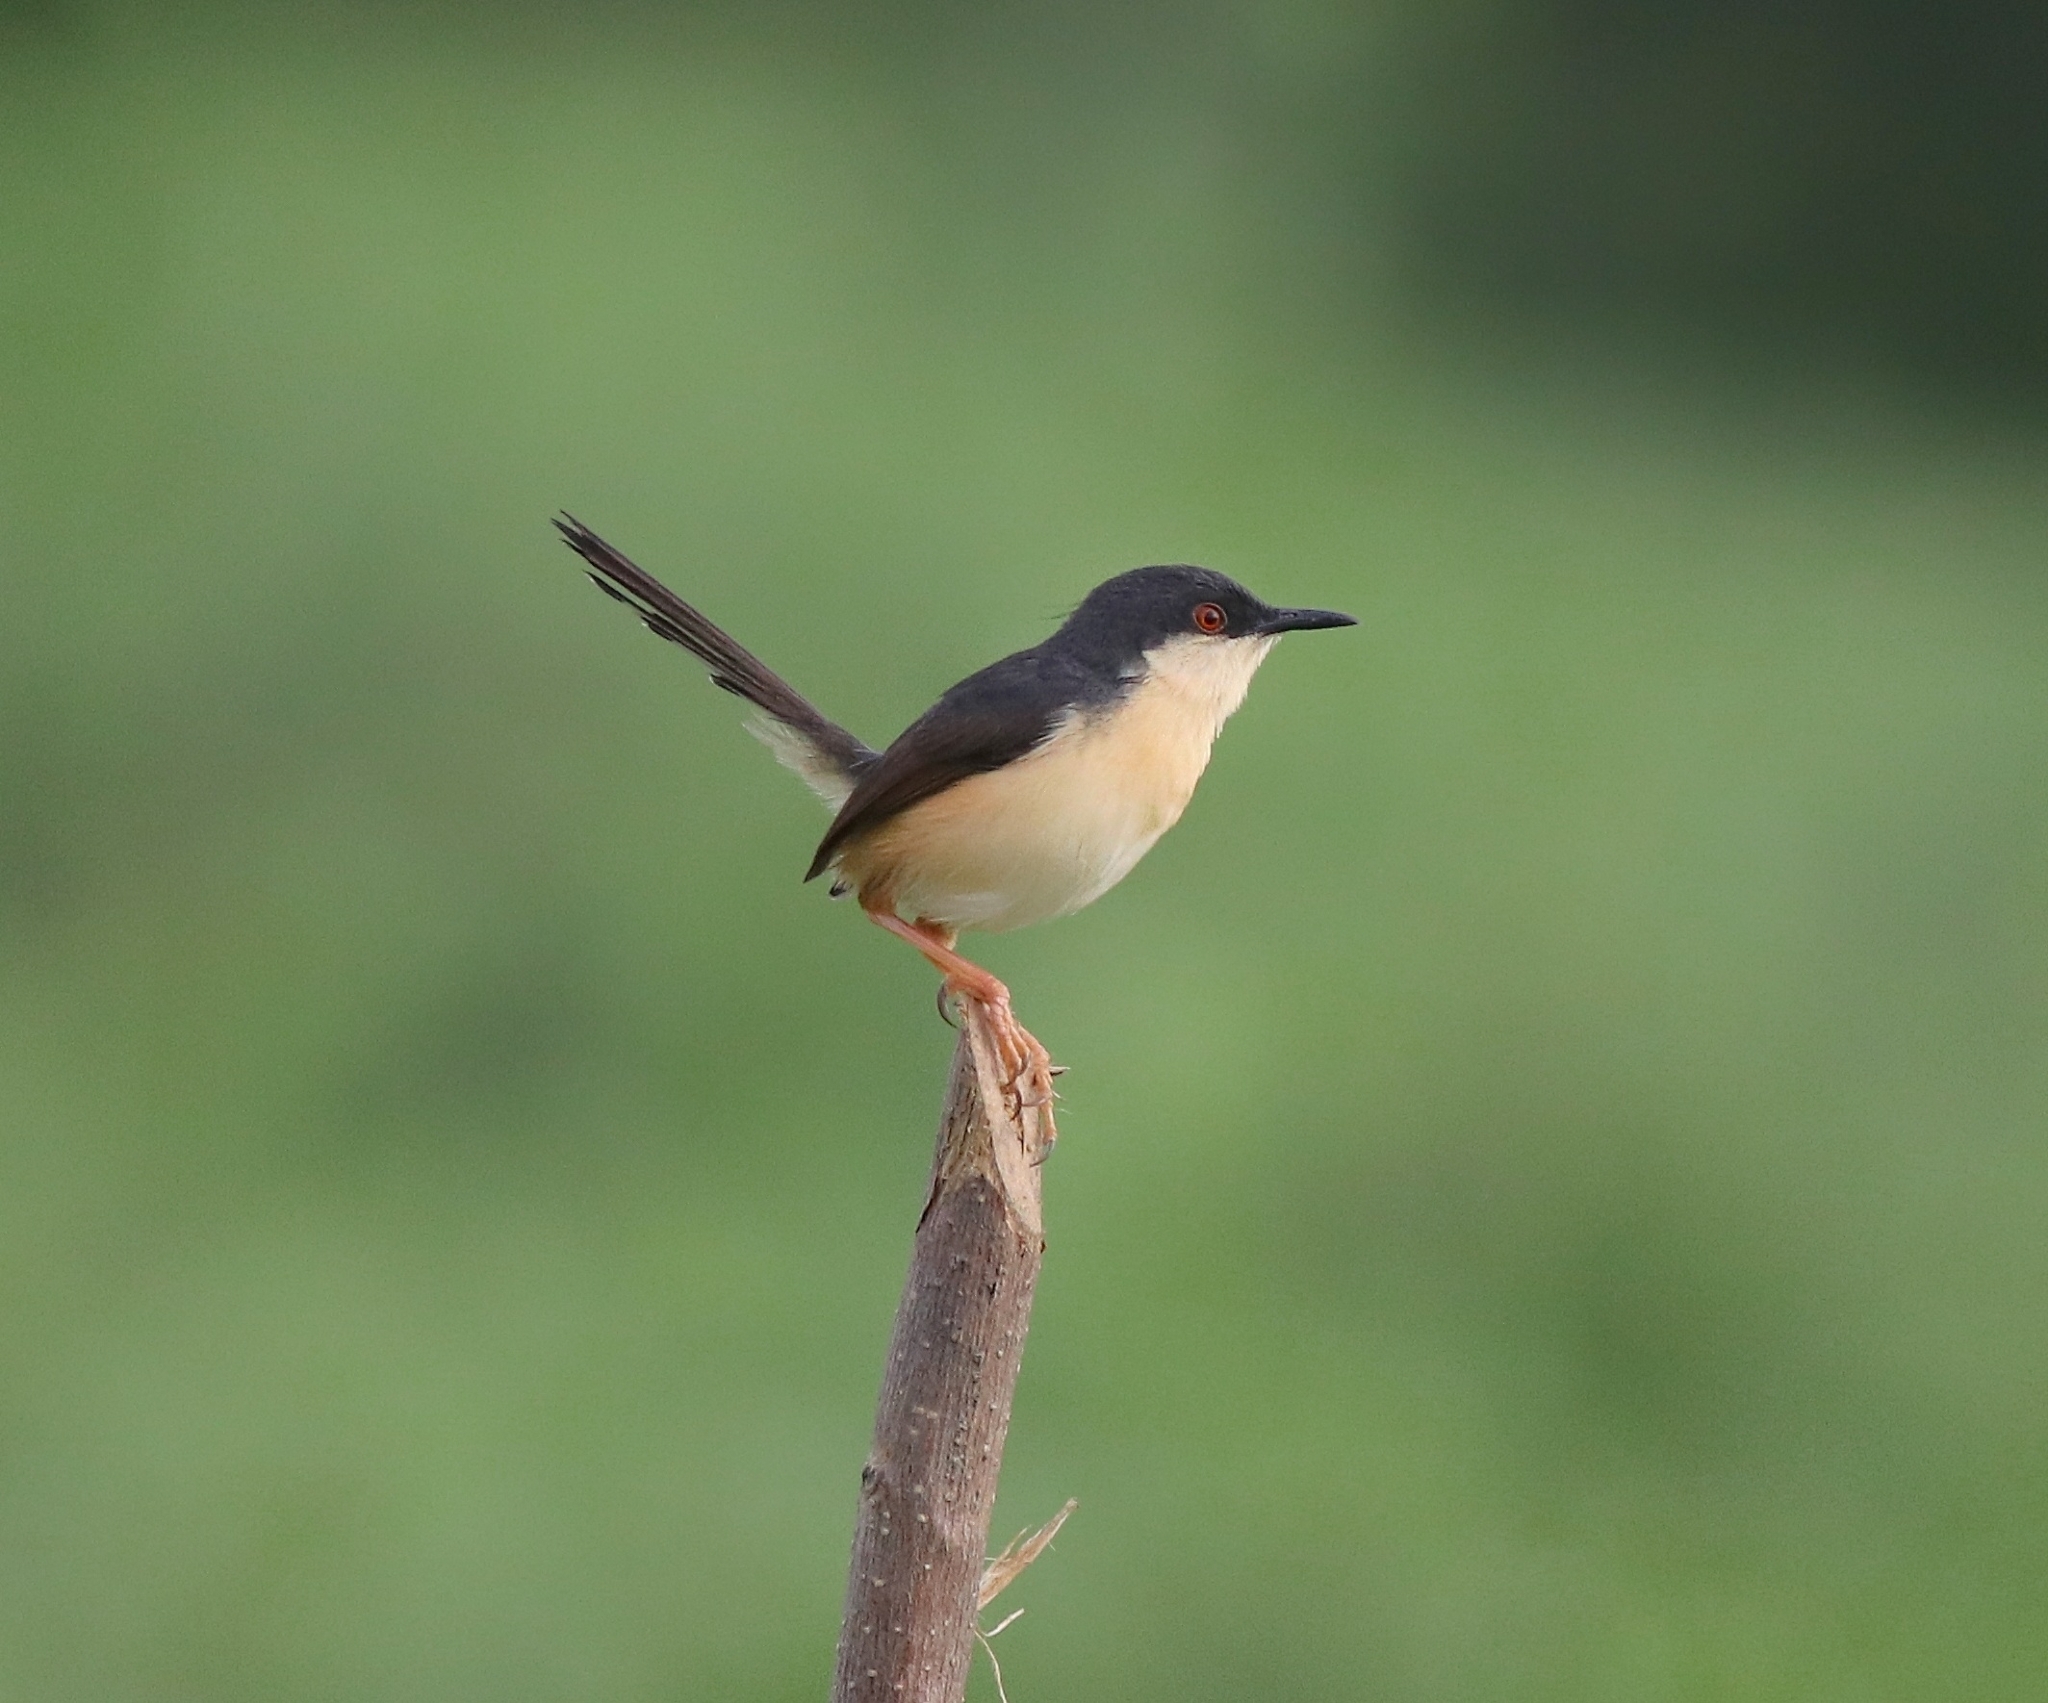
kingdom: Animalia
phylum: Chordata
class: Aves
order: Passeriformes
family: Cisticolidae
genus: Prinia
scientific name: Prinia socialis
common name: Ashy prinia
